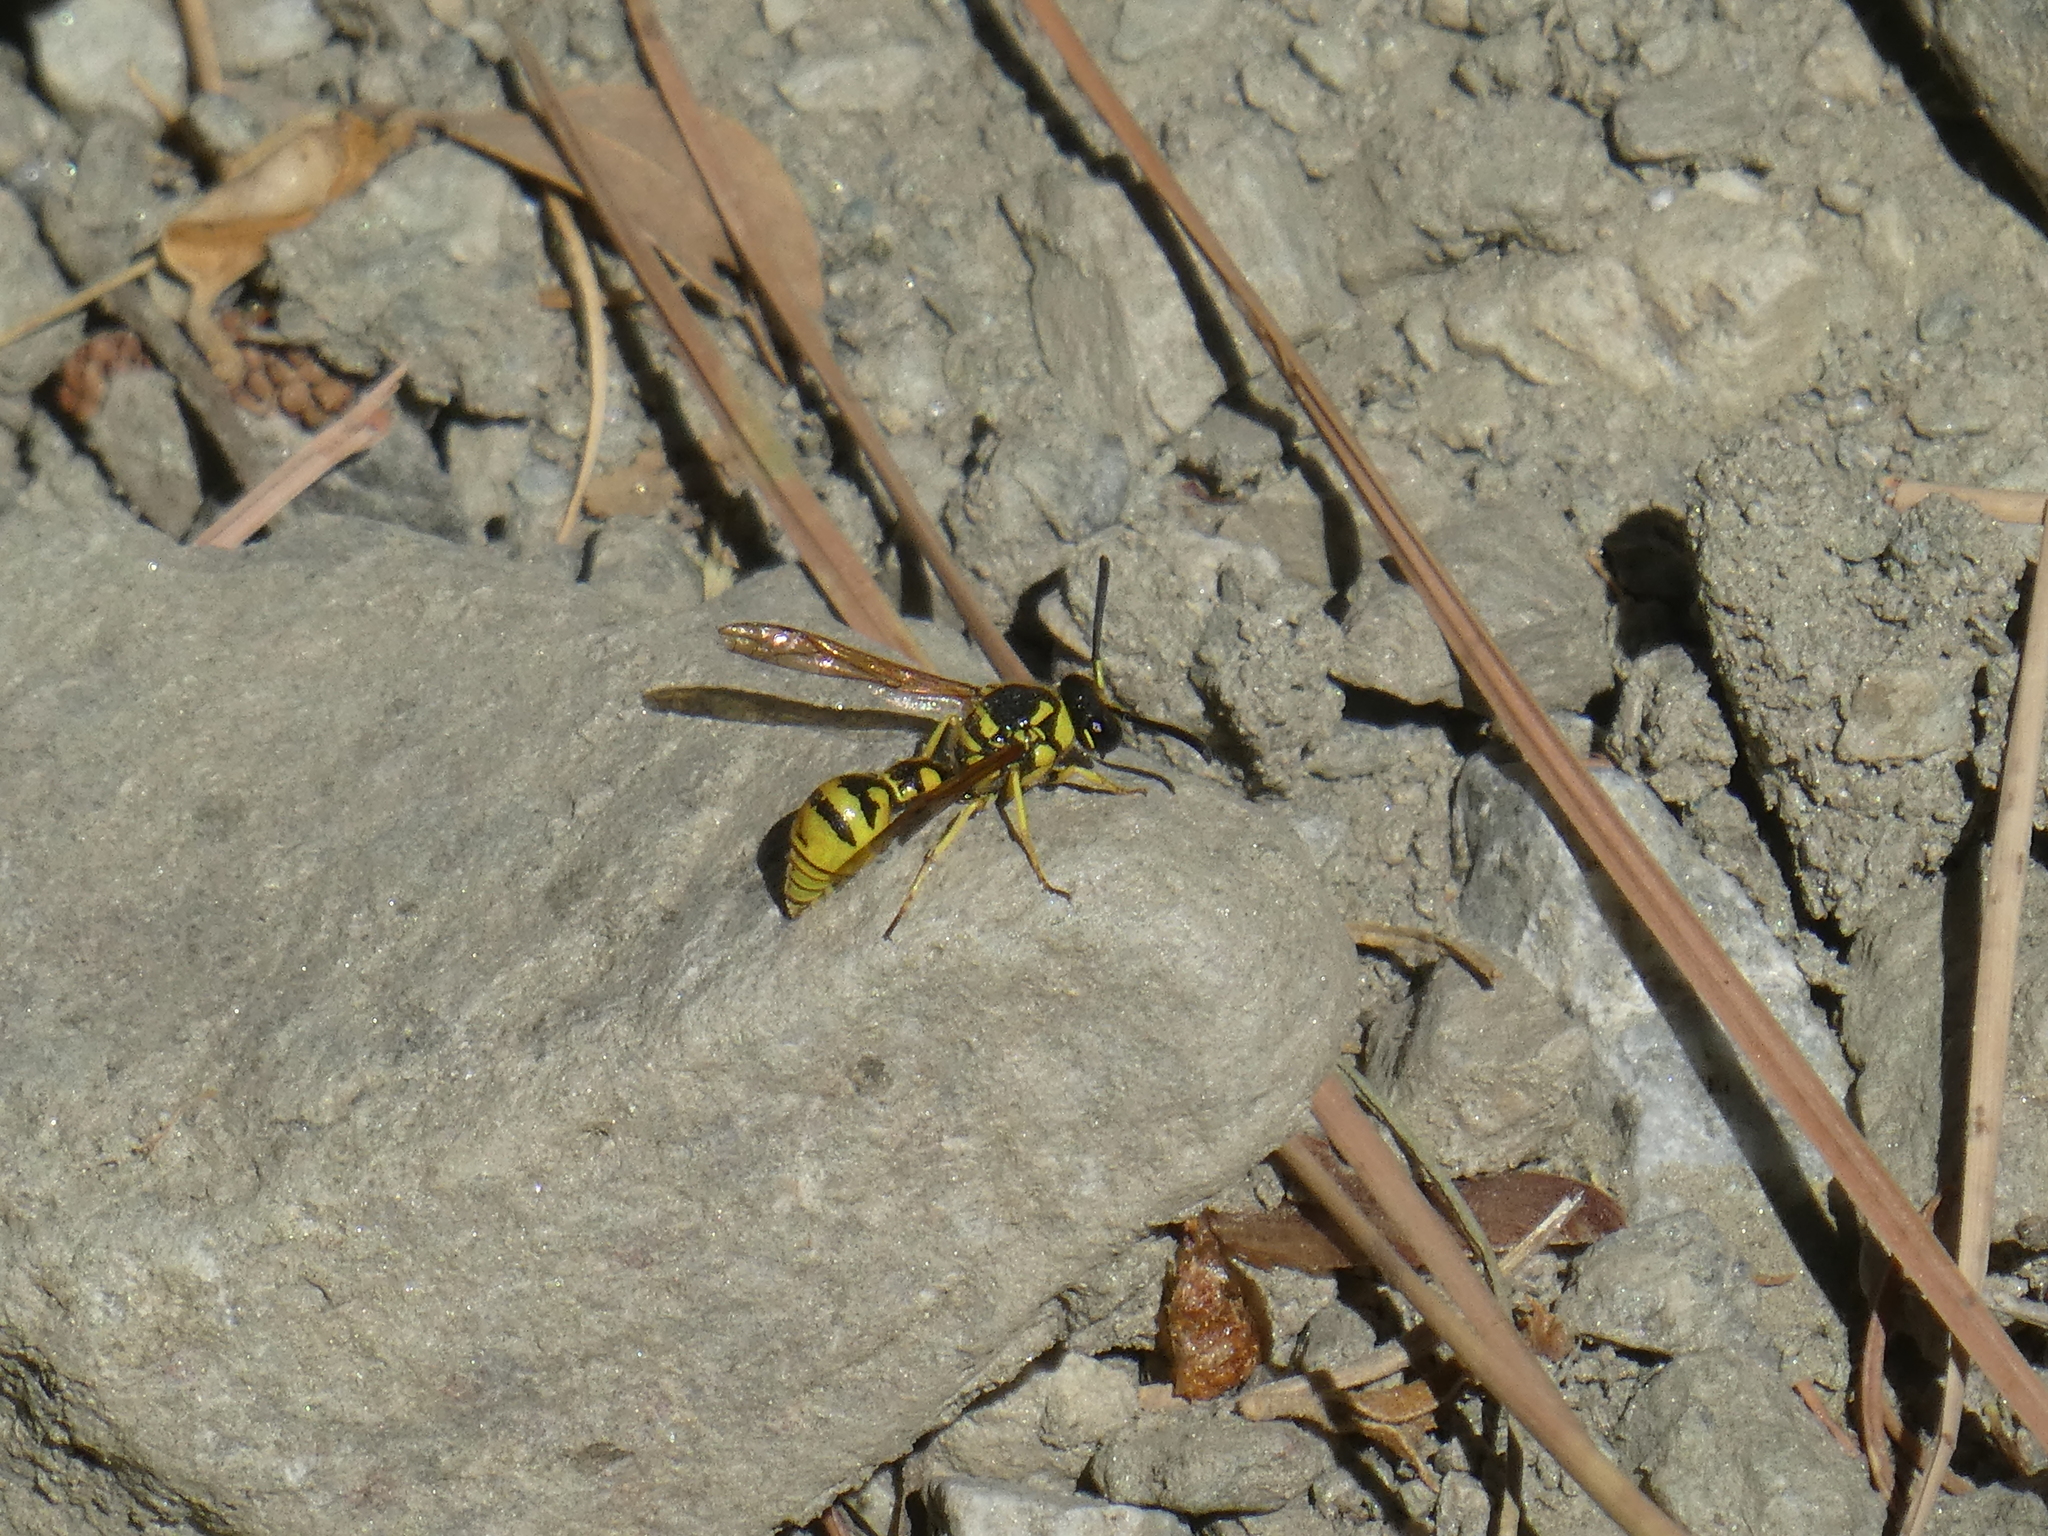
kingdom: Animalia
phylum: Arthropoda
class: Insecta
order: Hymenoptera
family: Vespidae
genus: Eumenes
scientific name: Eumenes verticalis
